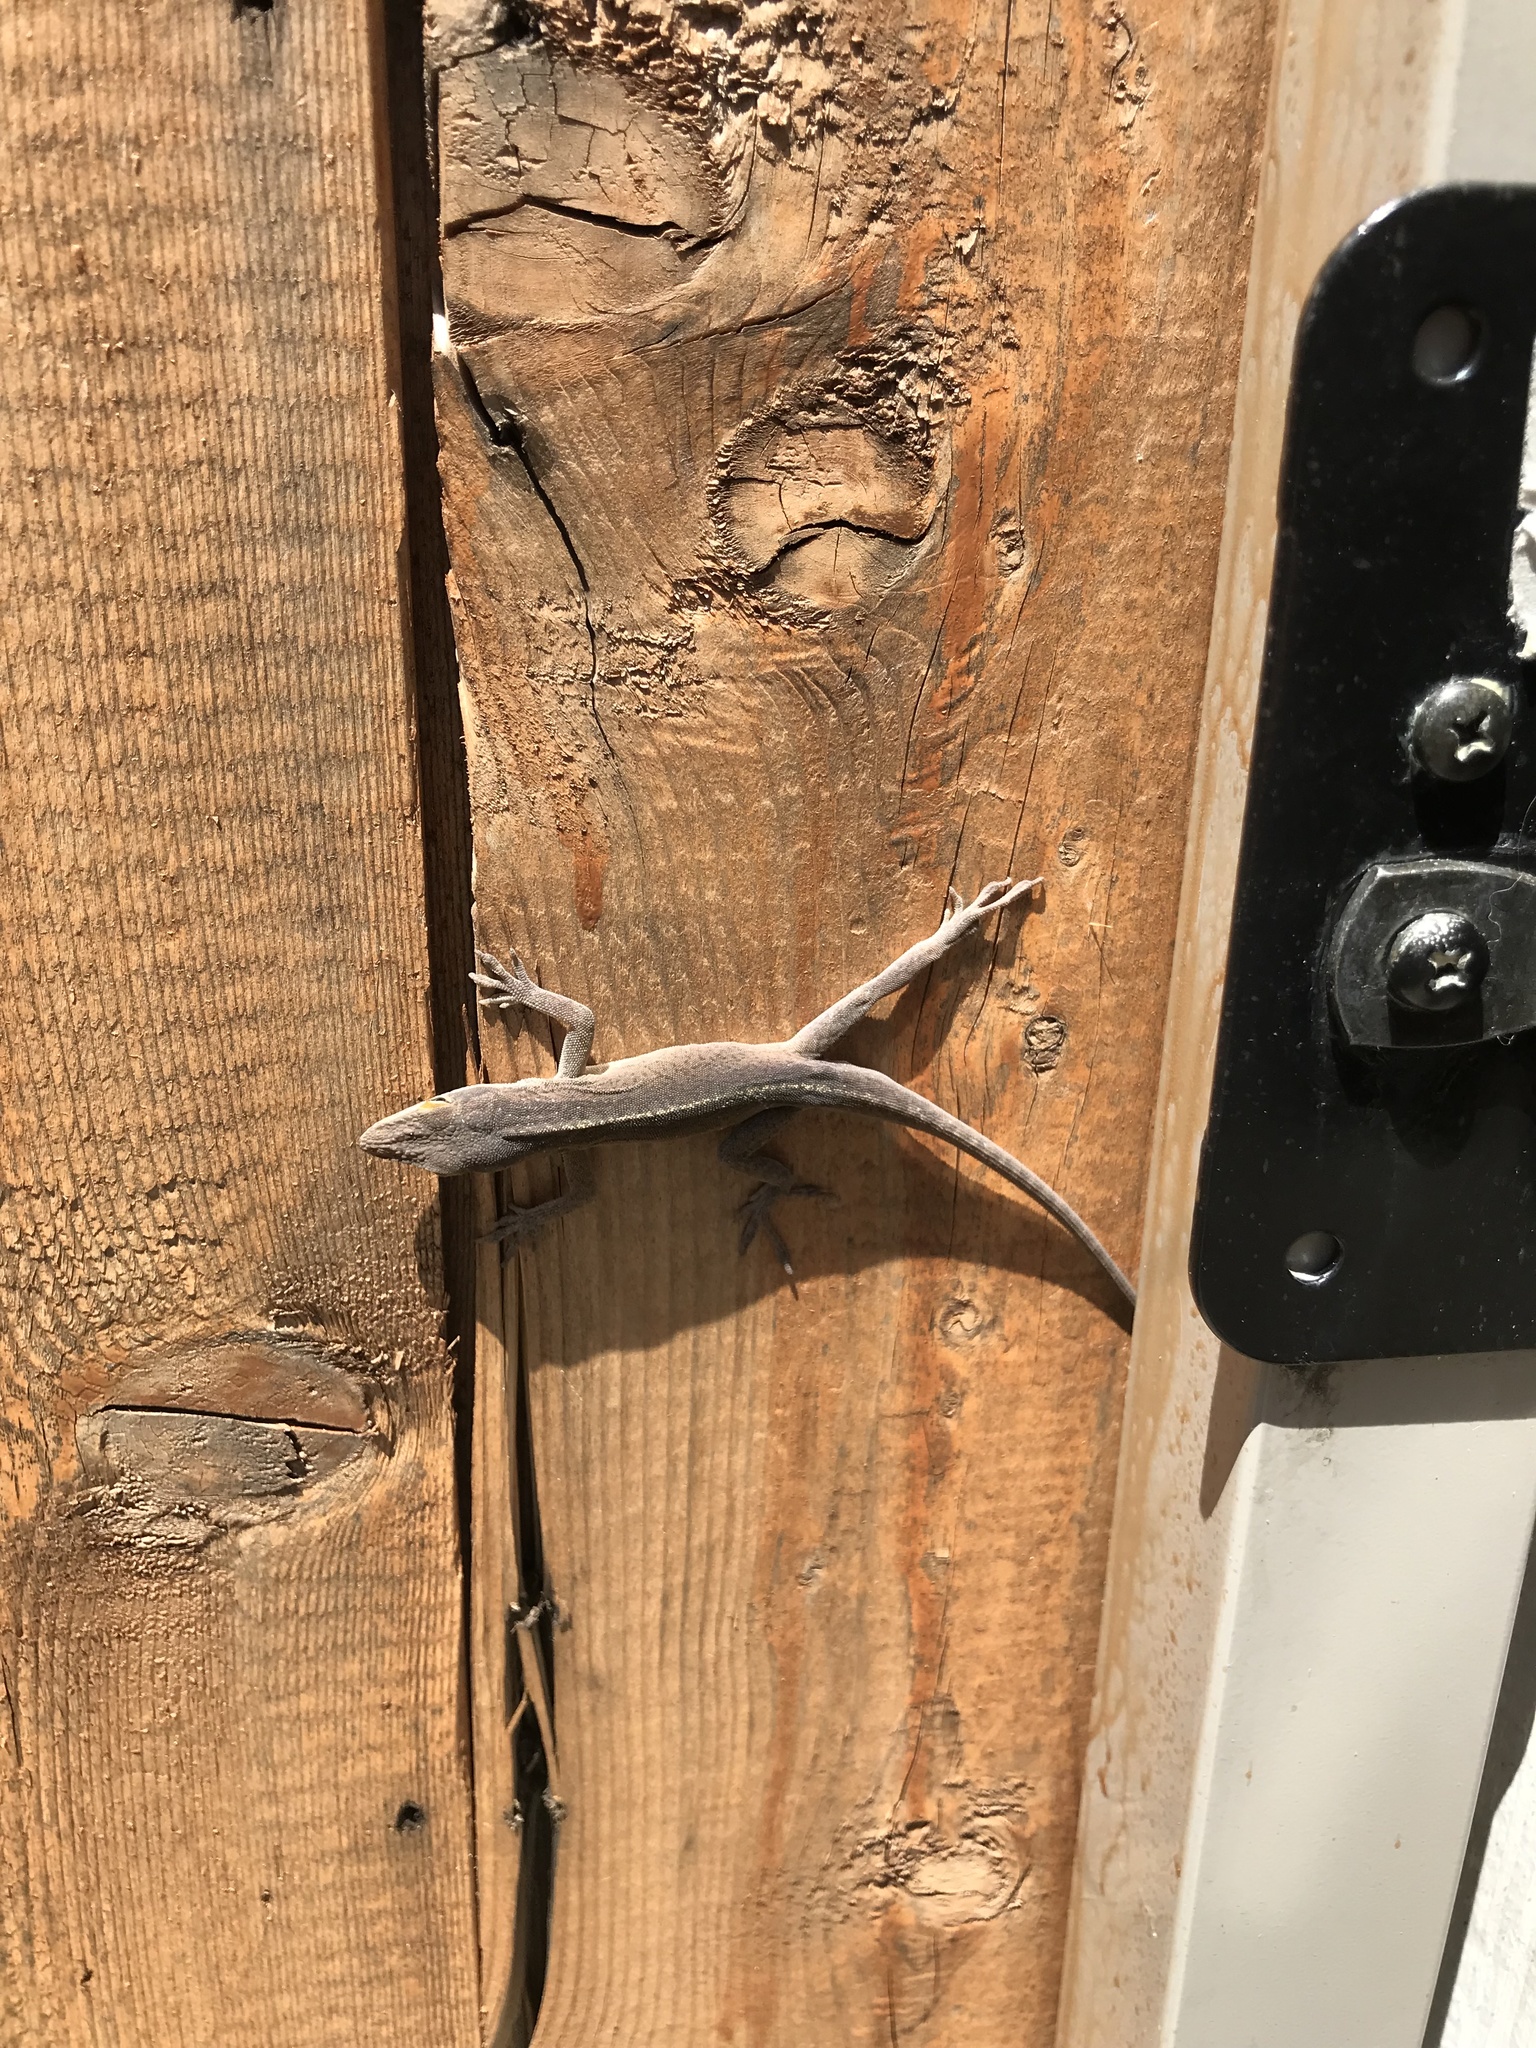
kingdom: Animalia
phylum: Chordata
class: Squamata
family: Dactyloidae
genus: Anolis
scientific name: Anolis carolinensis
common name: Green anole
